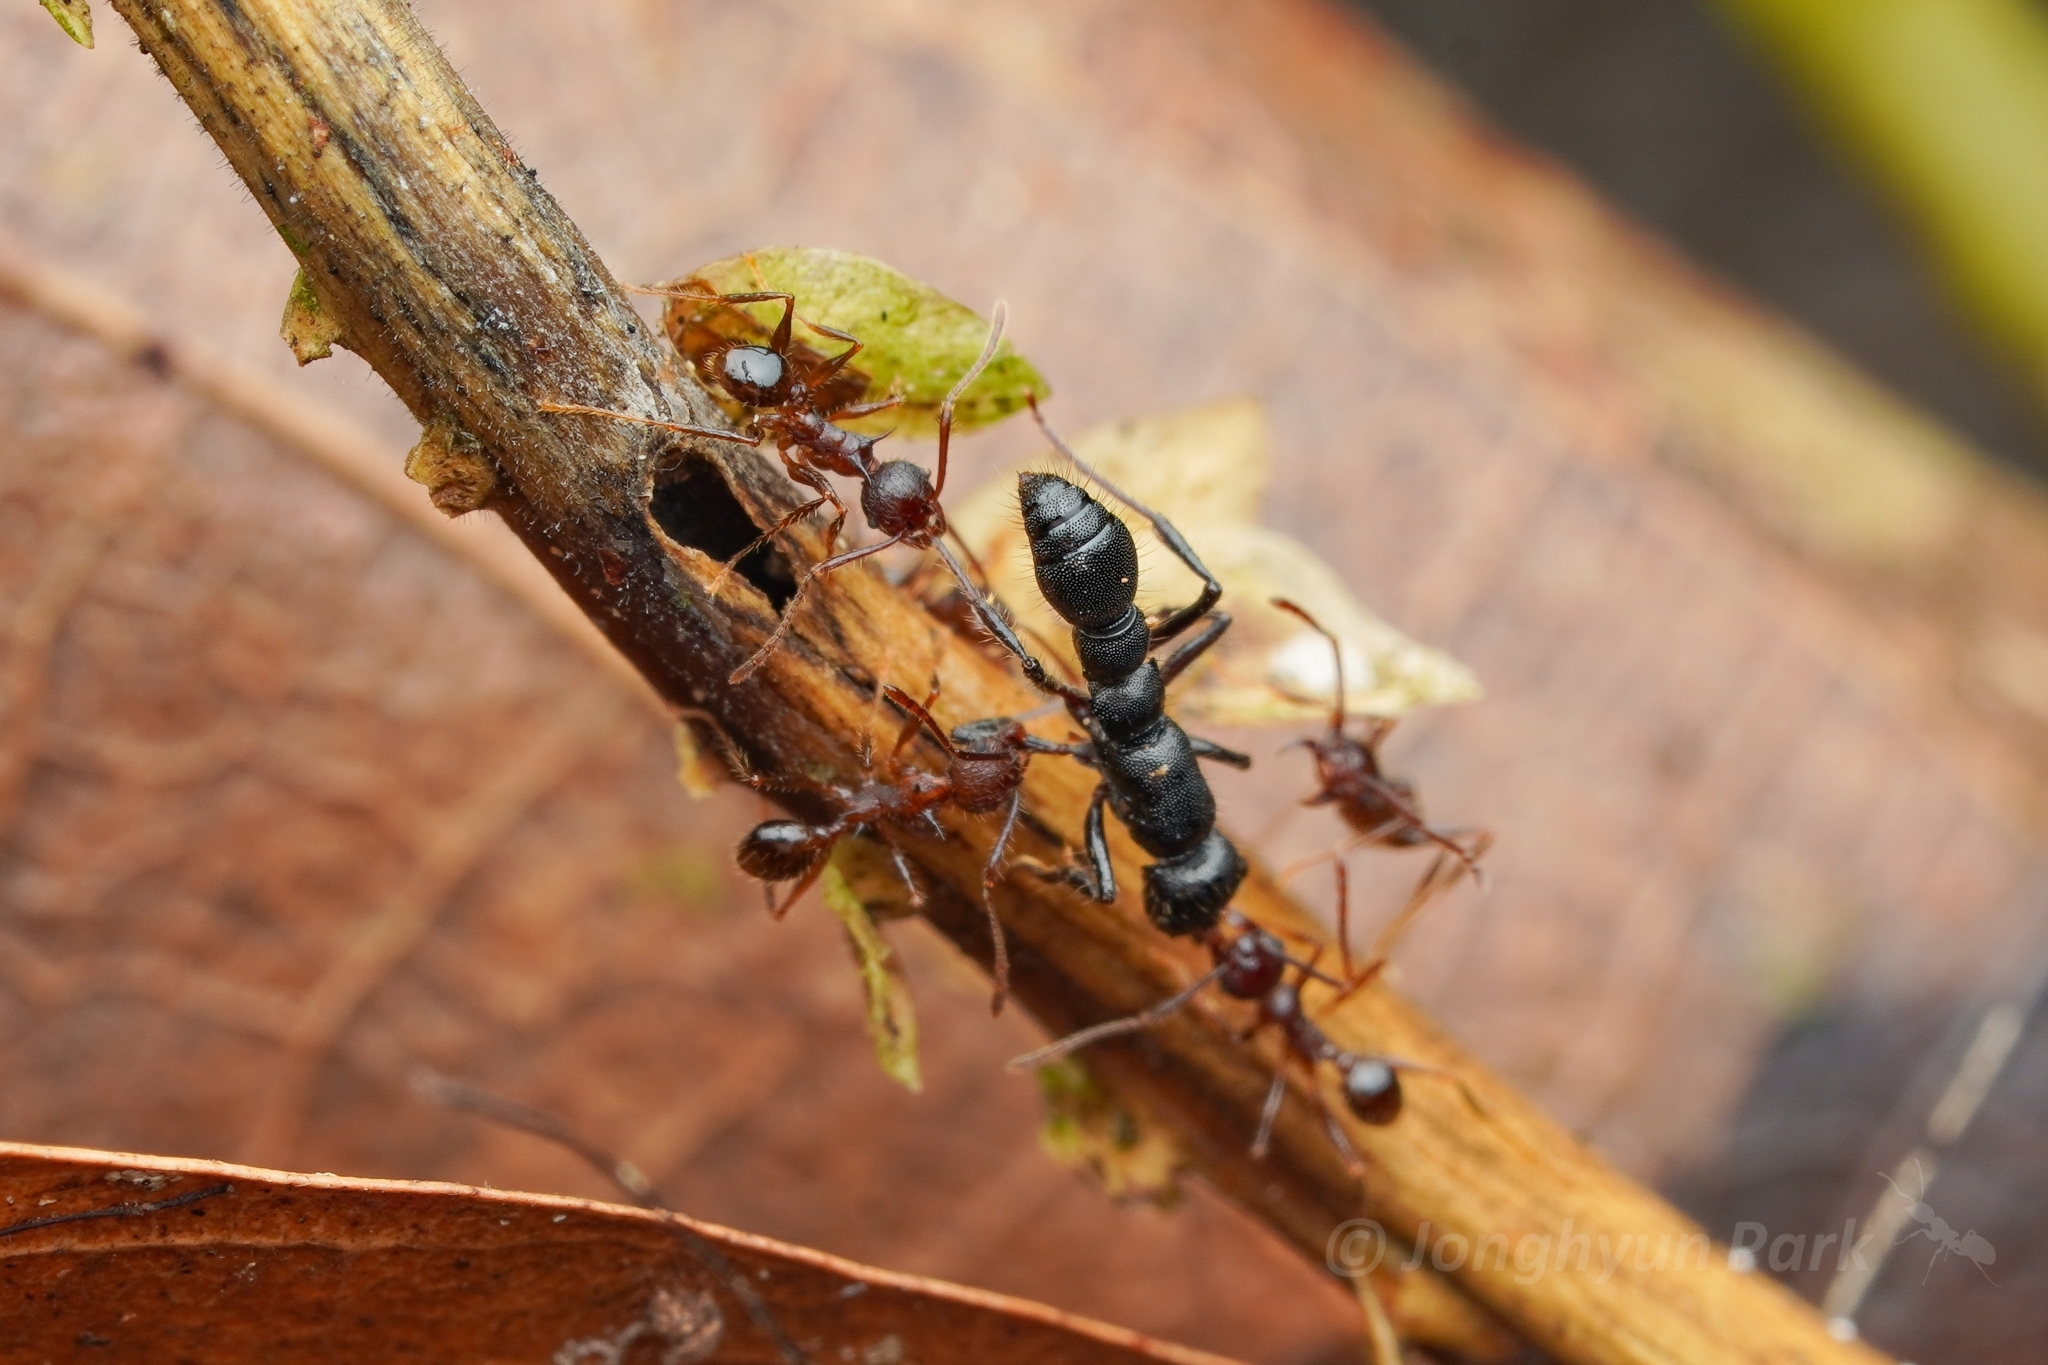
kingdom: Animalia
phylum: Arthropoda
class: Insecta
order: Hymenoptera
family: Formicidae
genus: Pheidole
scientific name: Pheidole lokitae
